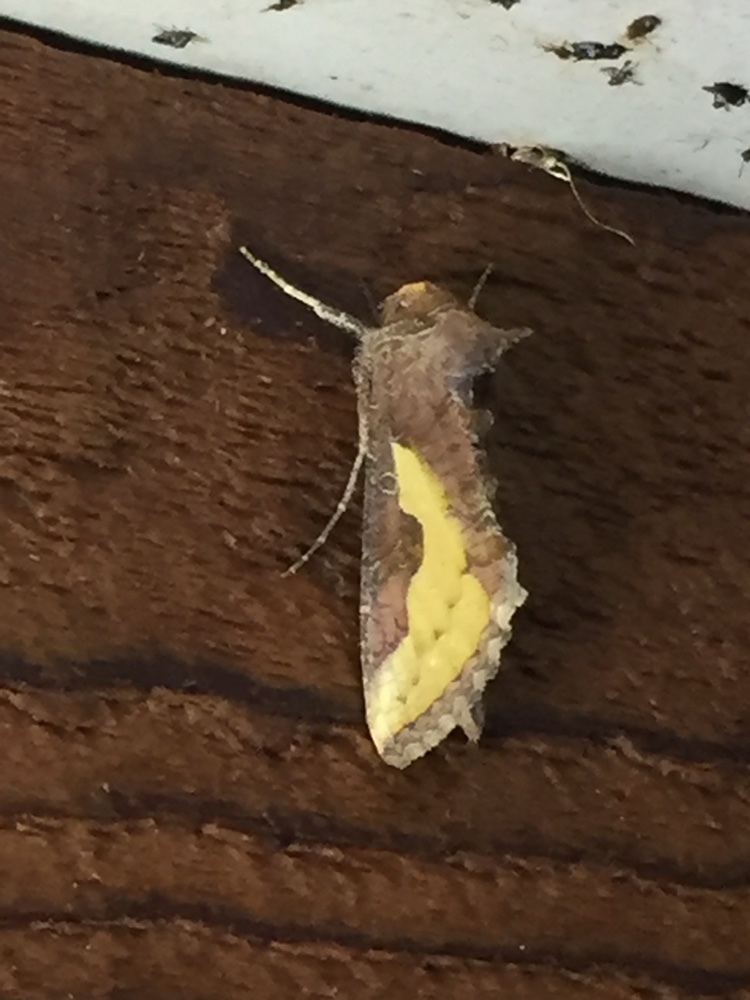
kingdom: Animalia
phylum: Arthropoda
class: Insecta
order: Lepidoptera
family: Noctuidae
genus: Thysanoplusia
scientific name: Thysanoplusia orichalcea
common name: Slender burnished brass, golden plusia
